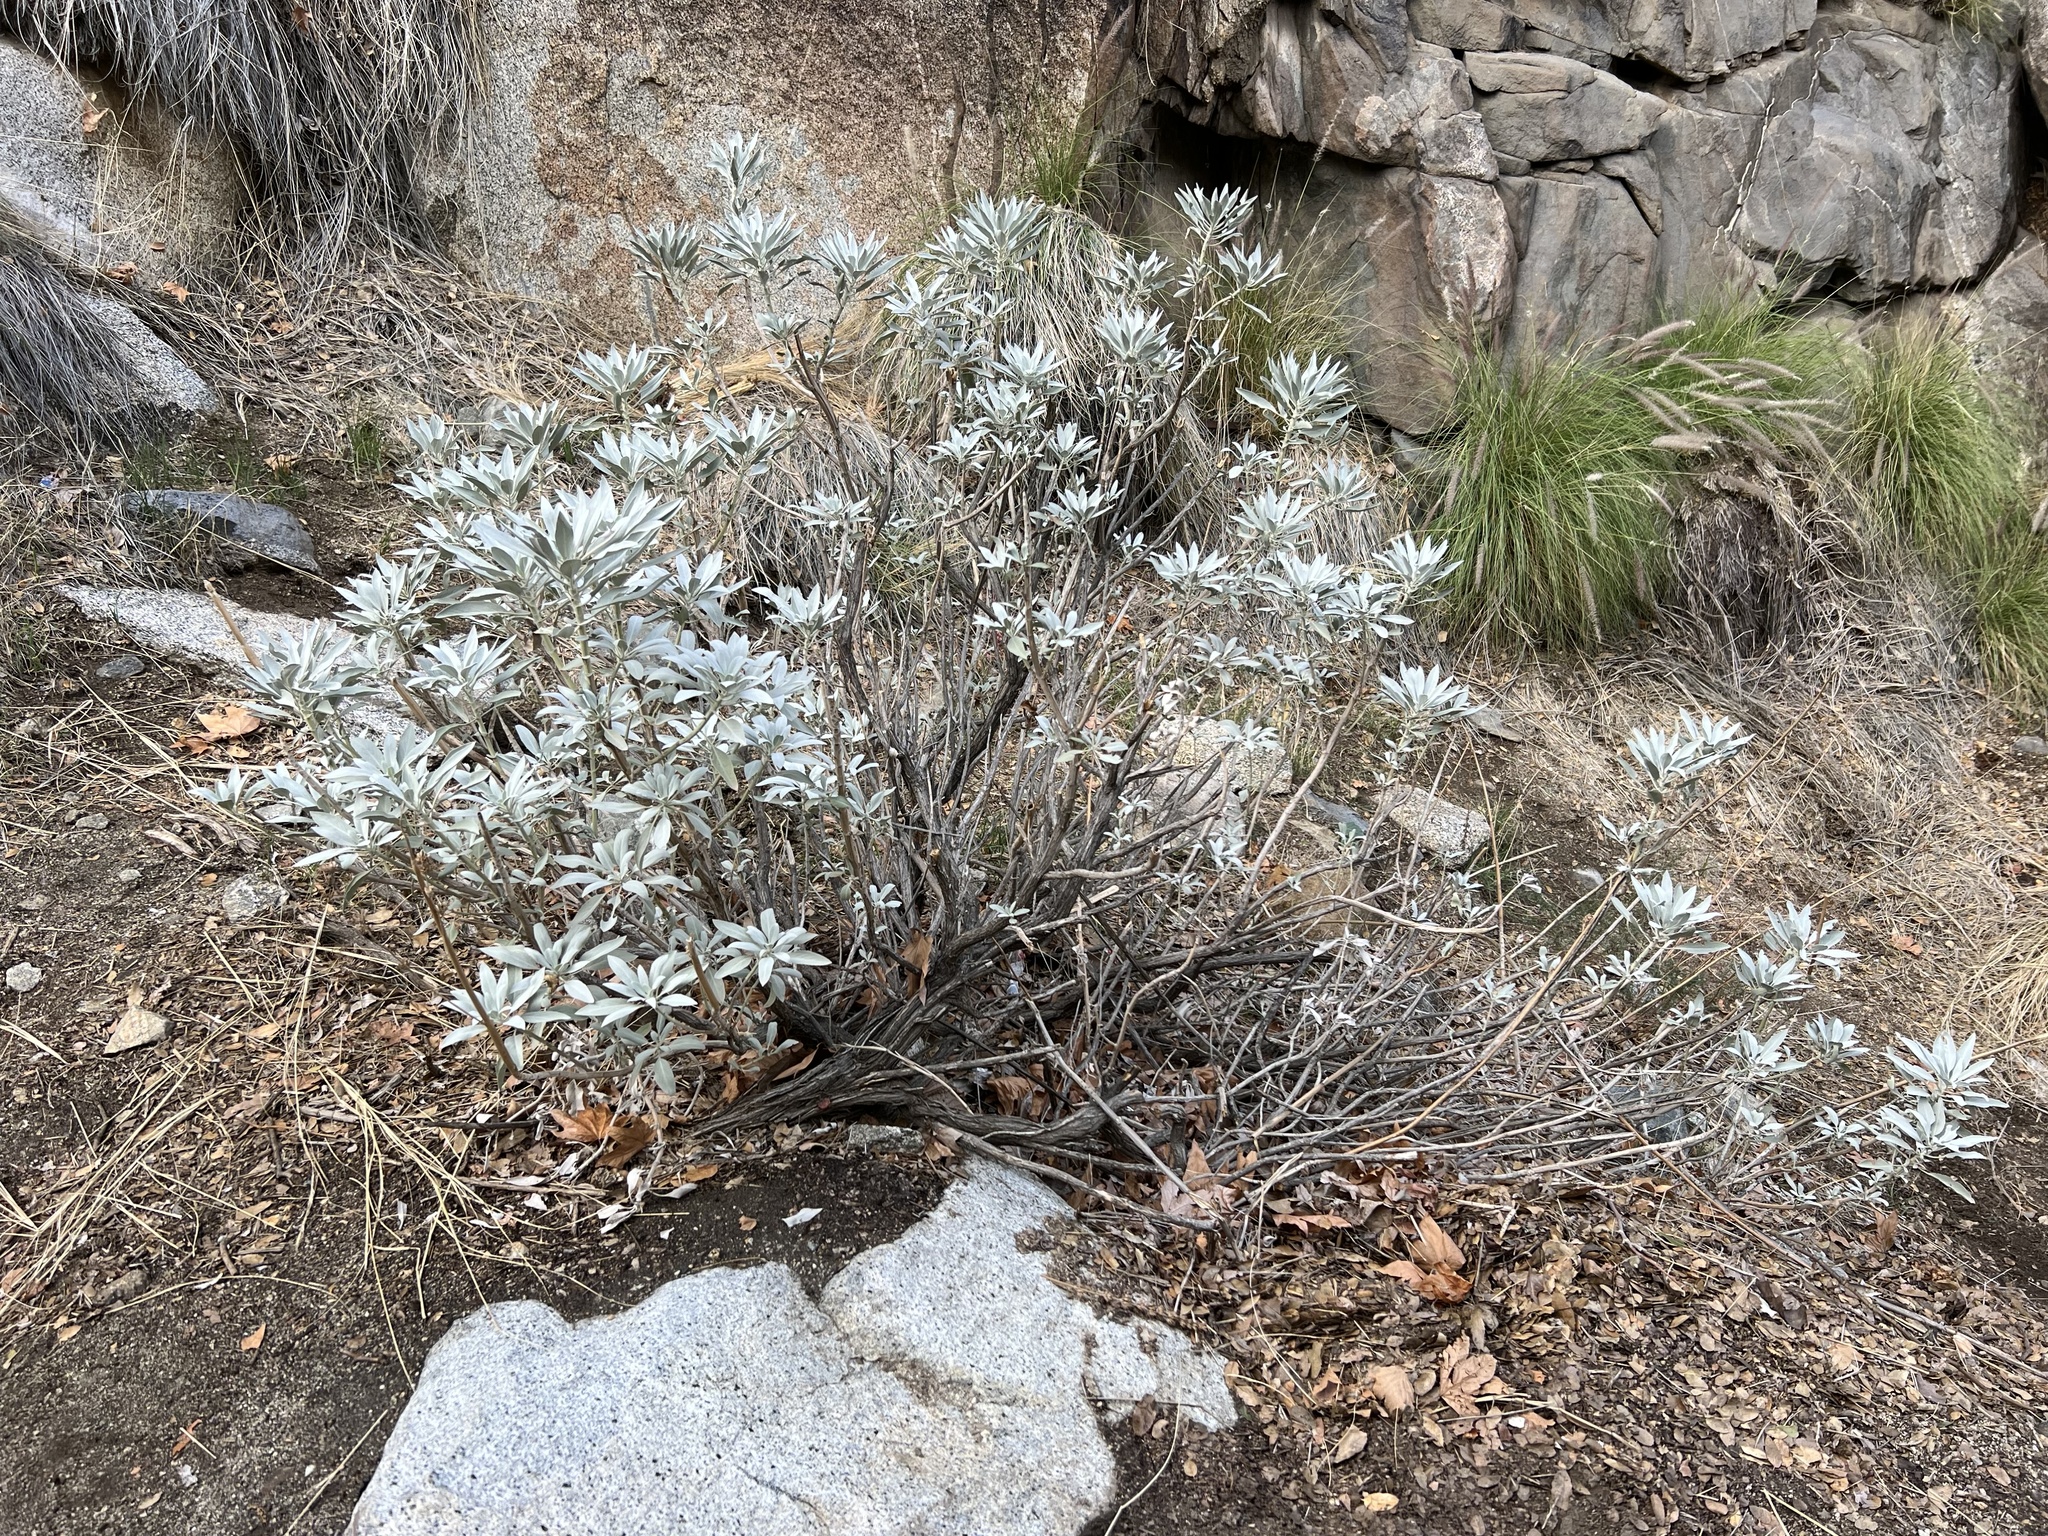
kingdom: Plantae
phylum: Tracheophyta
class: Magnoliopsida
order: Lamiales
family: Lamiaceae
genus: Salvia
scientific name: Salvia apiana
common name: White sage
